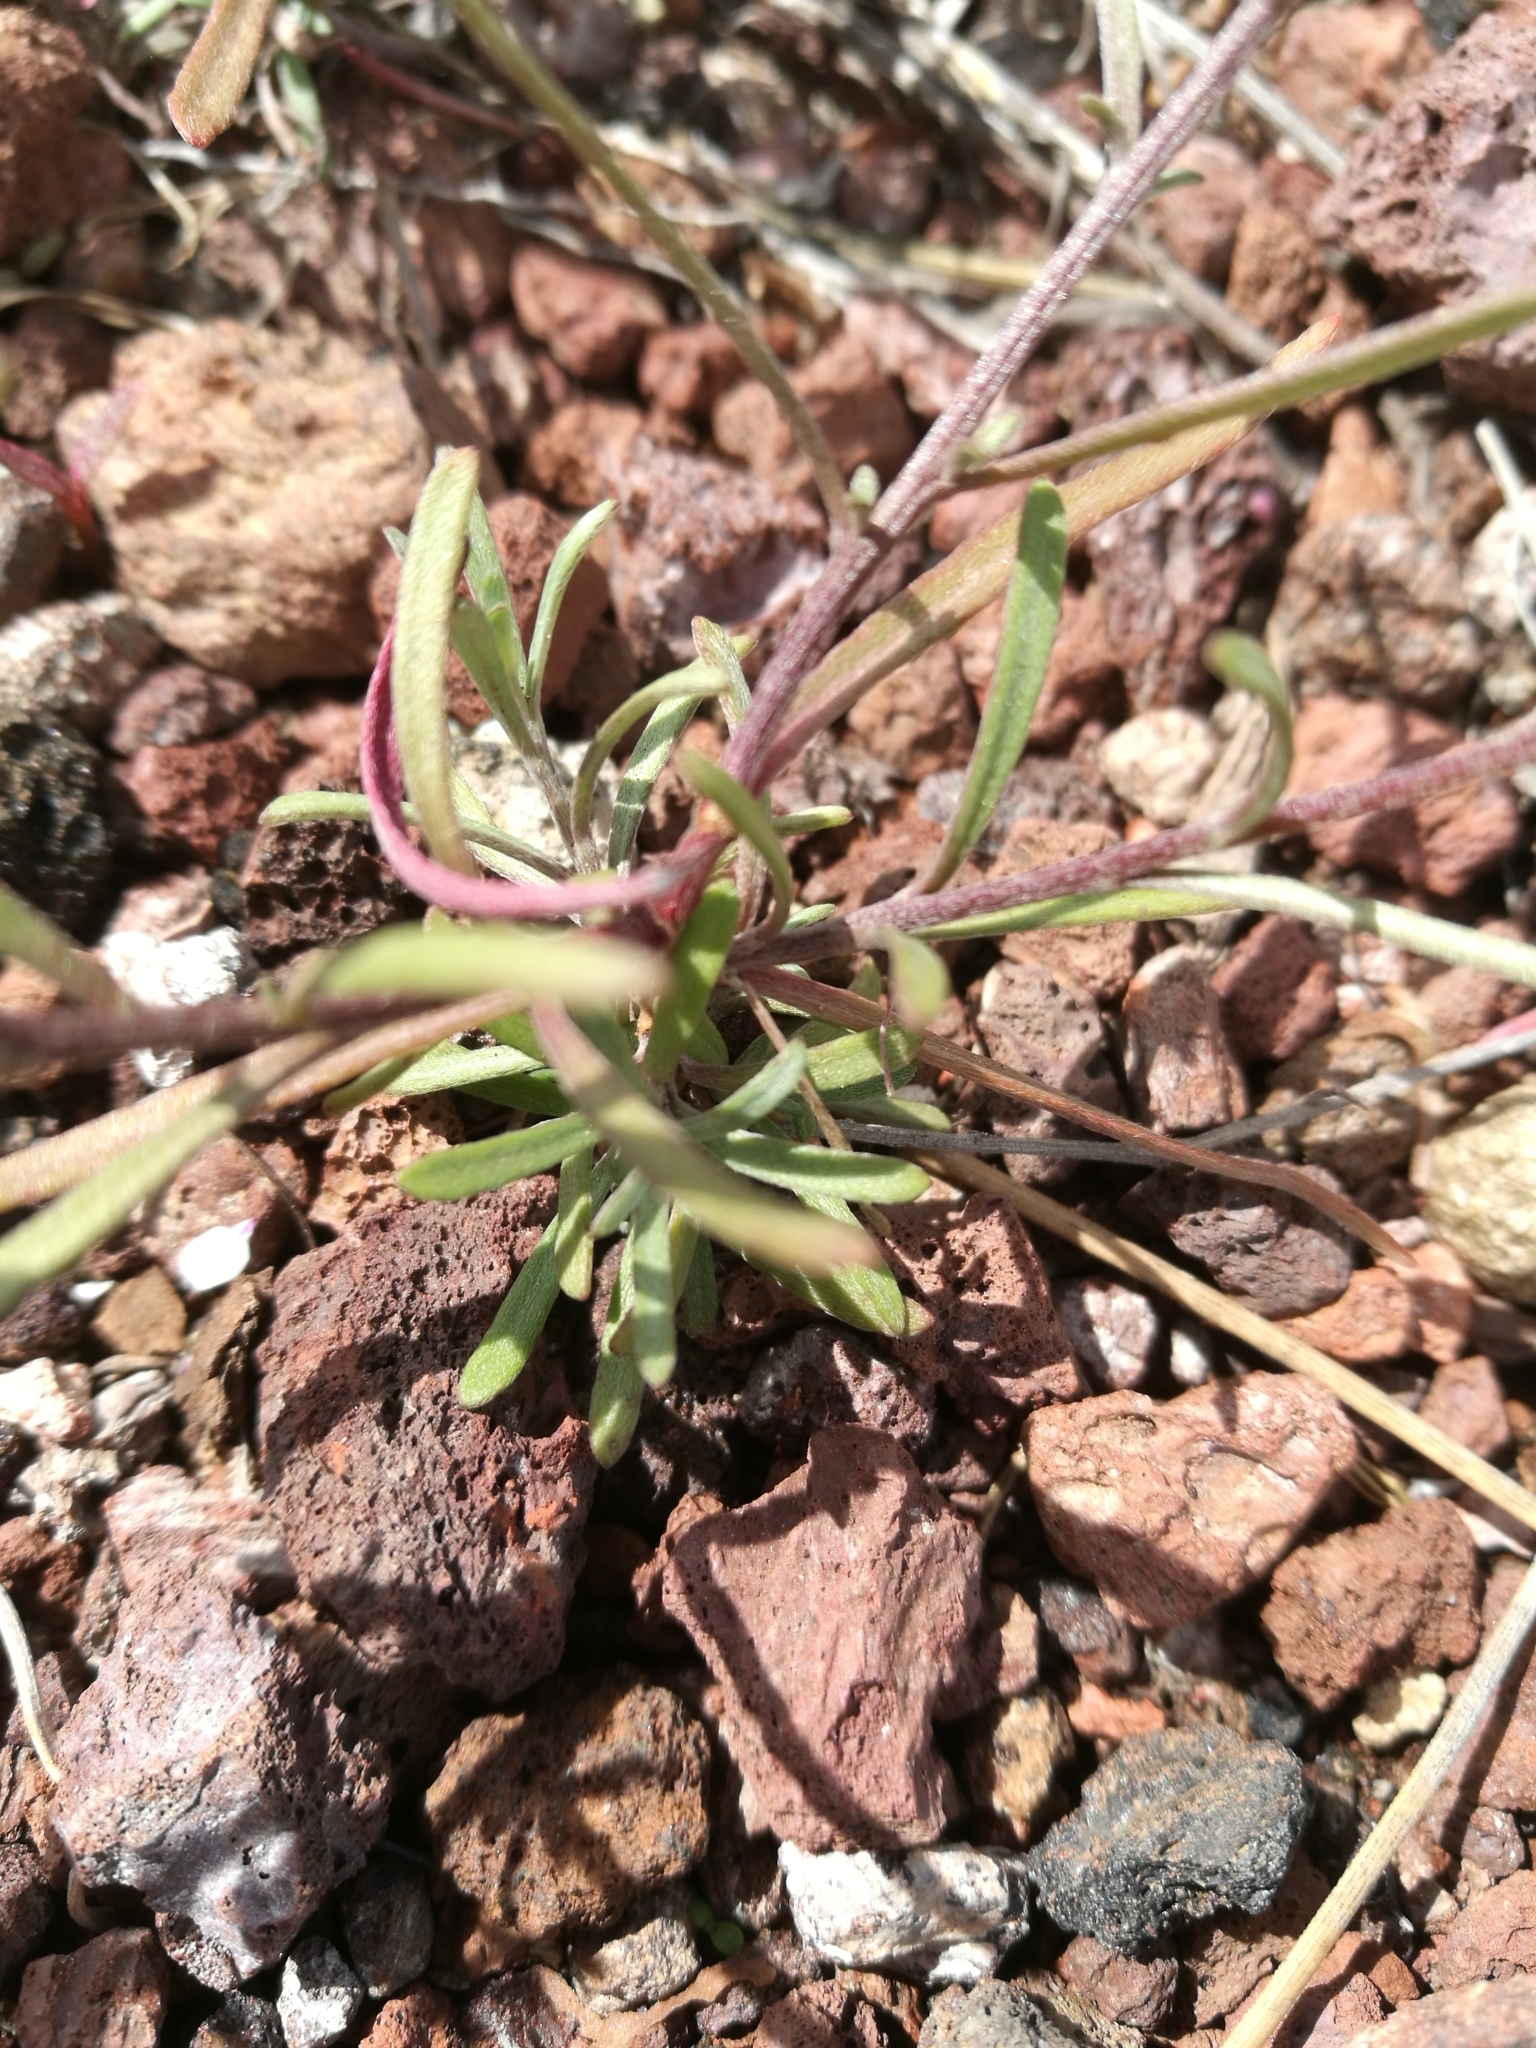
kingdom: Plantae
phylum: Tracheophyta
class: Magnoliopsida
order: Brassicales
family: Brassicaceae
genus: Lobularia
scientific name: Lobularia canariensis
